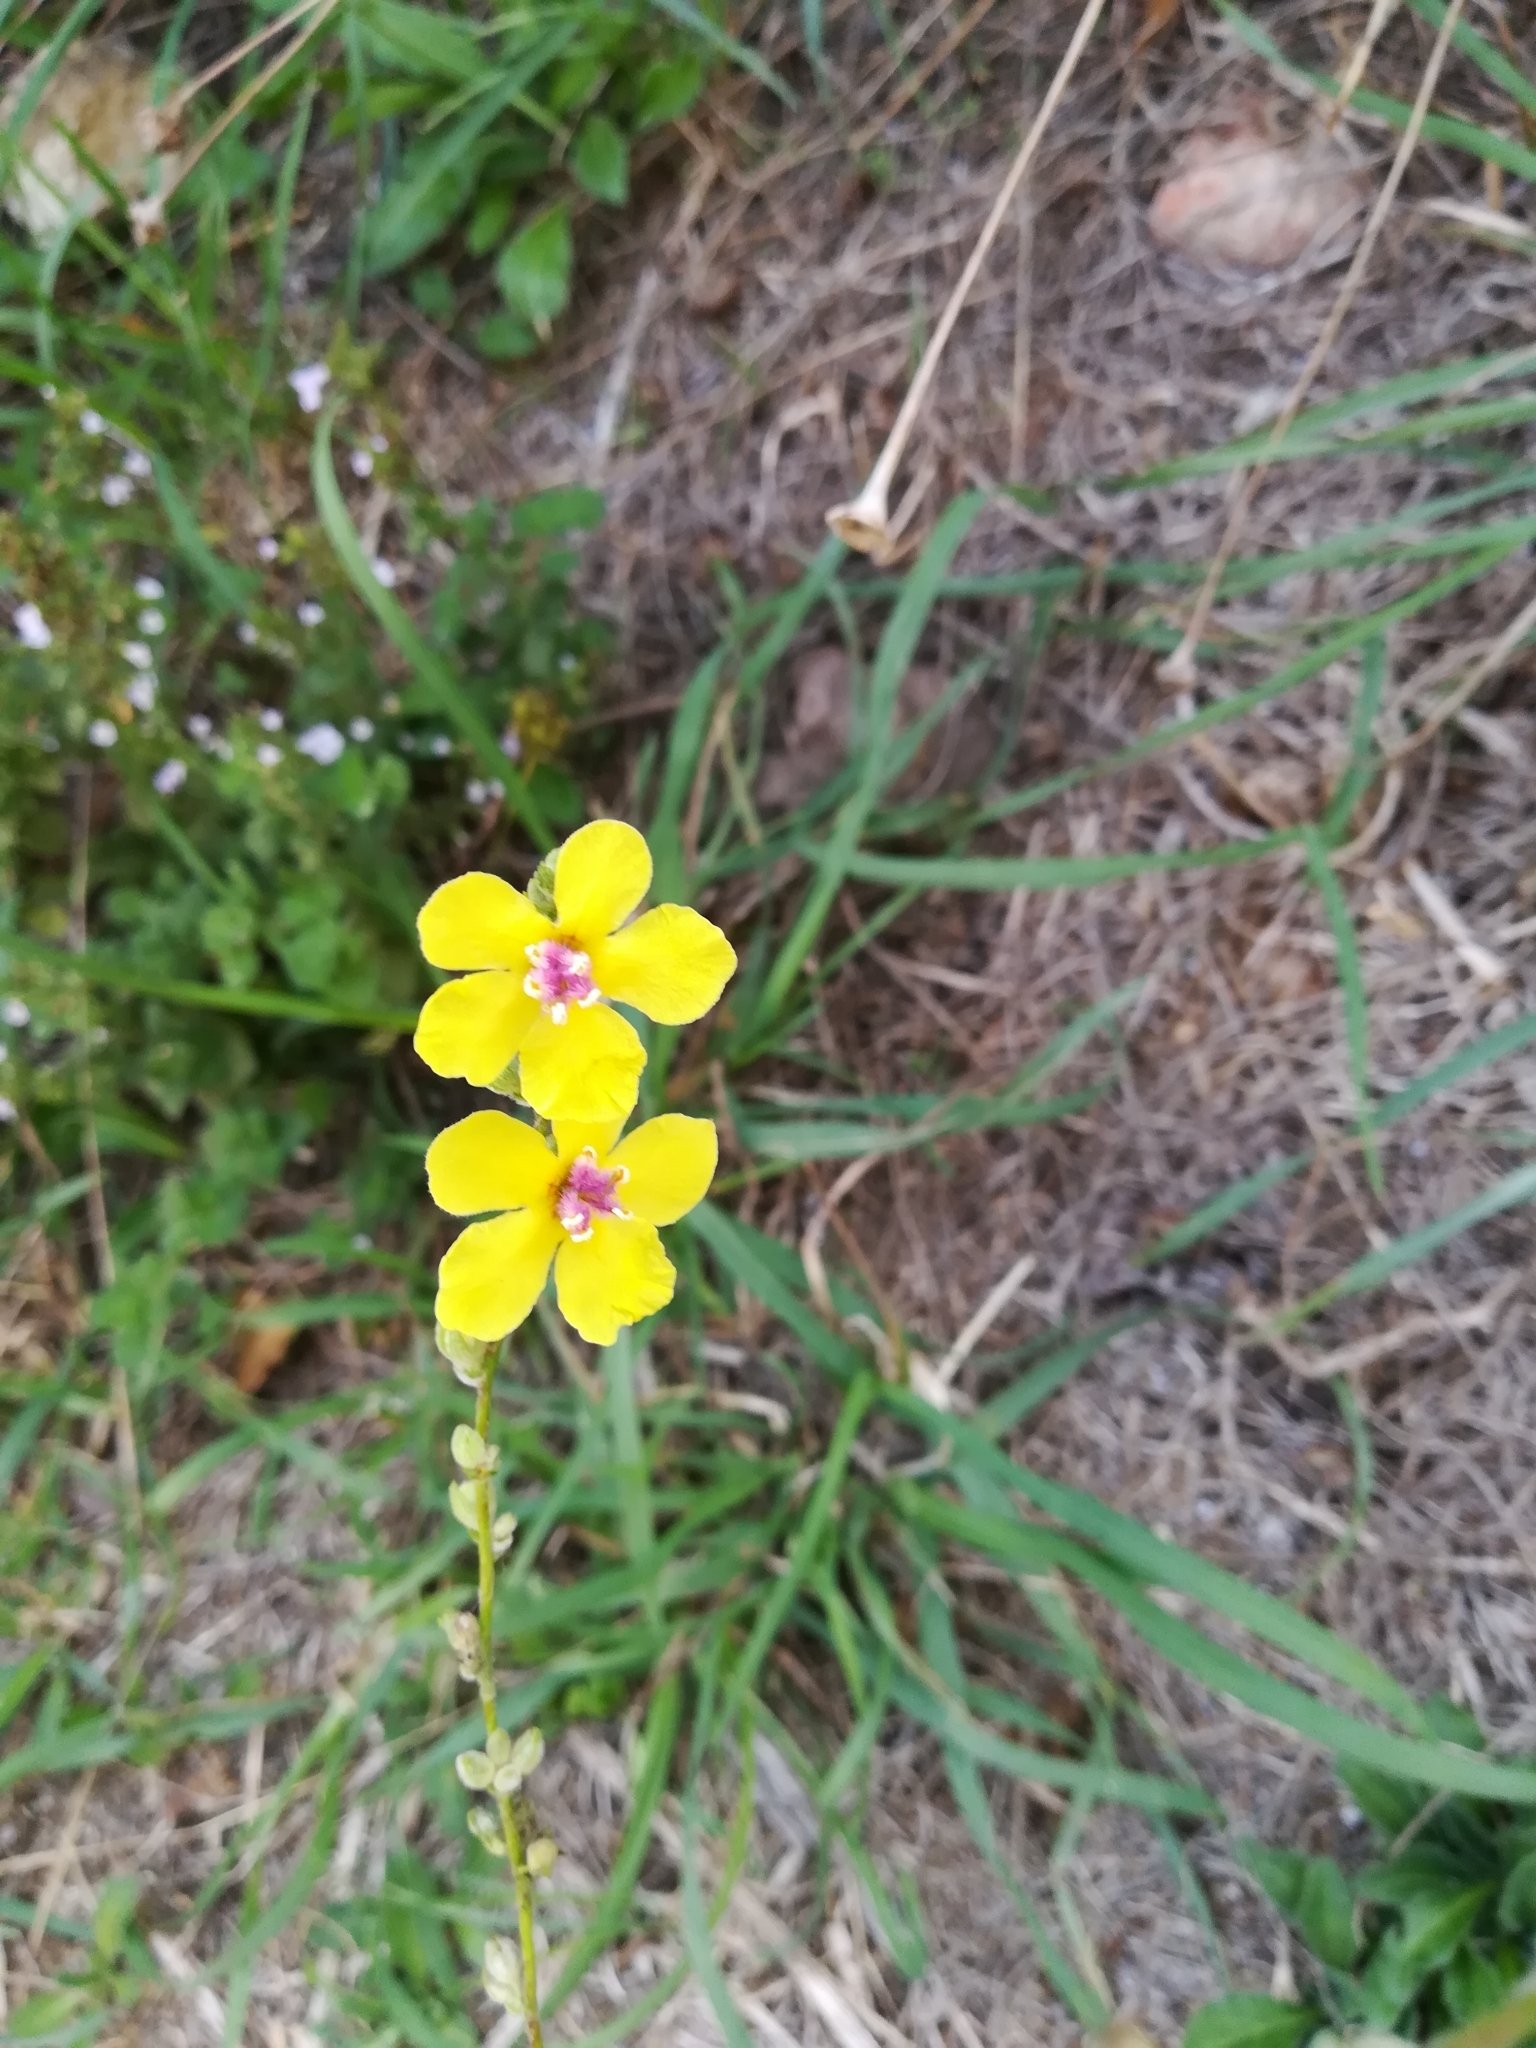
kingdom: Plantae
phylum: Tracheophyta
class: Magnoliopsida
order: Lamiales
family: Scrophulariaceae
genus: Verbascum
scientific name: Verbascum sinuatum
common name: Wavyleaf mullein
